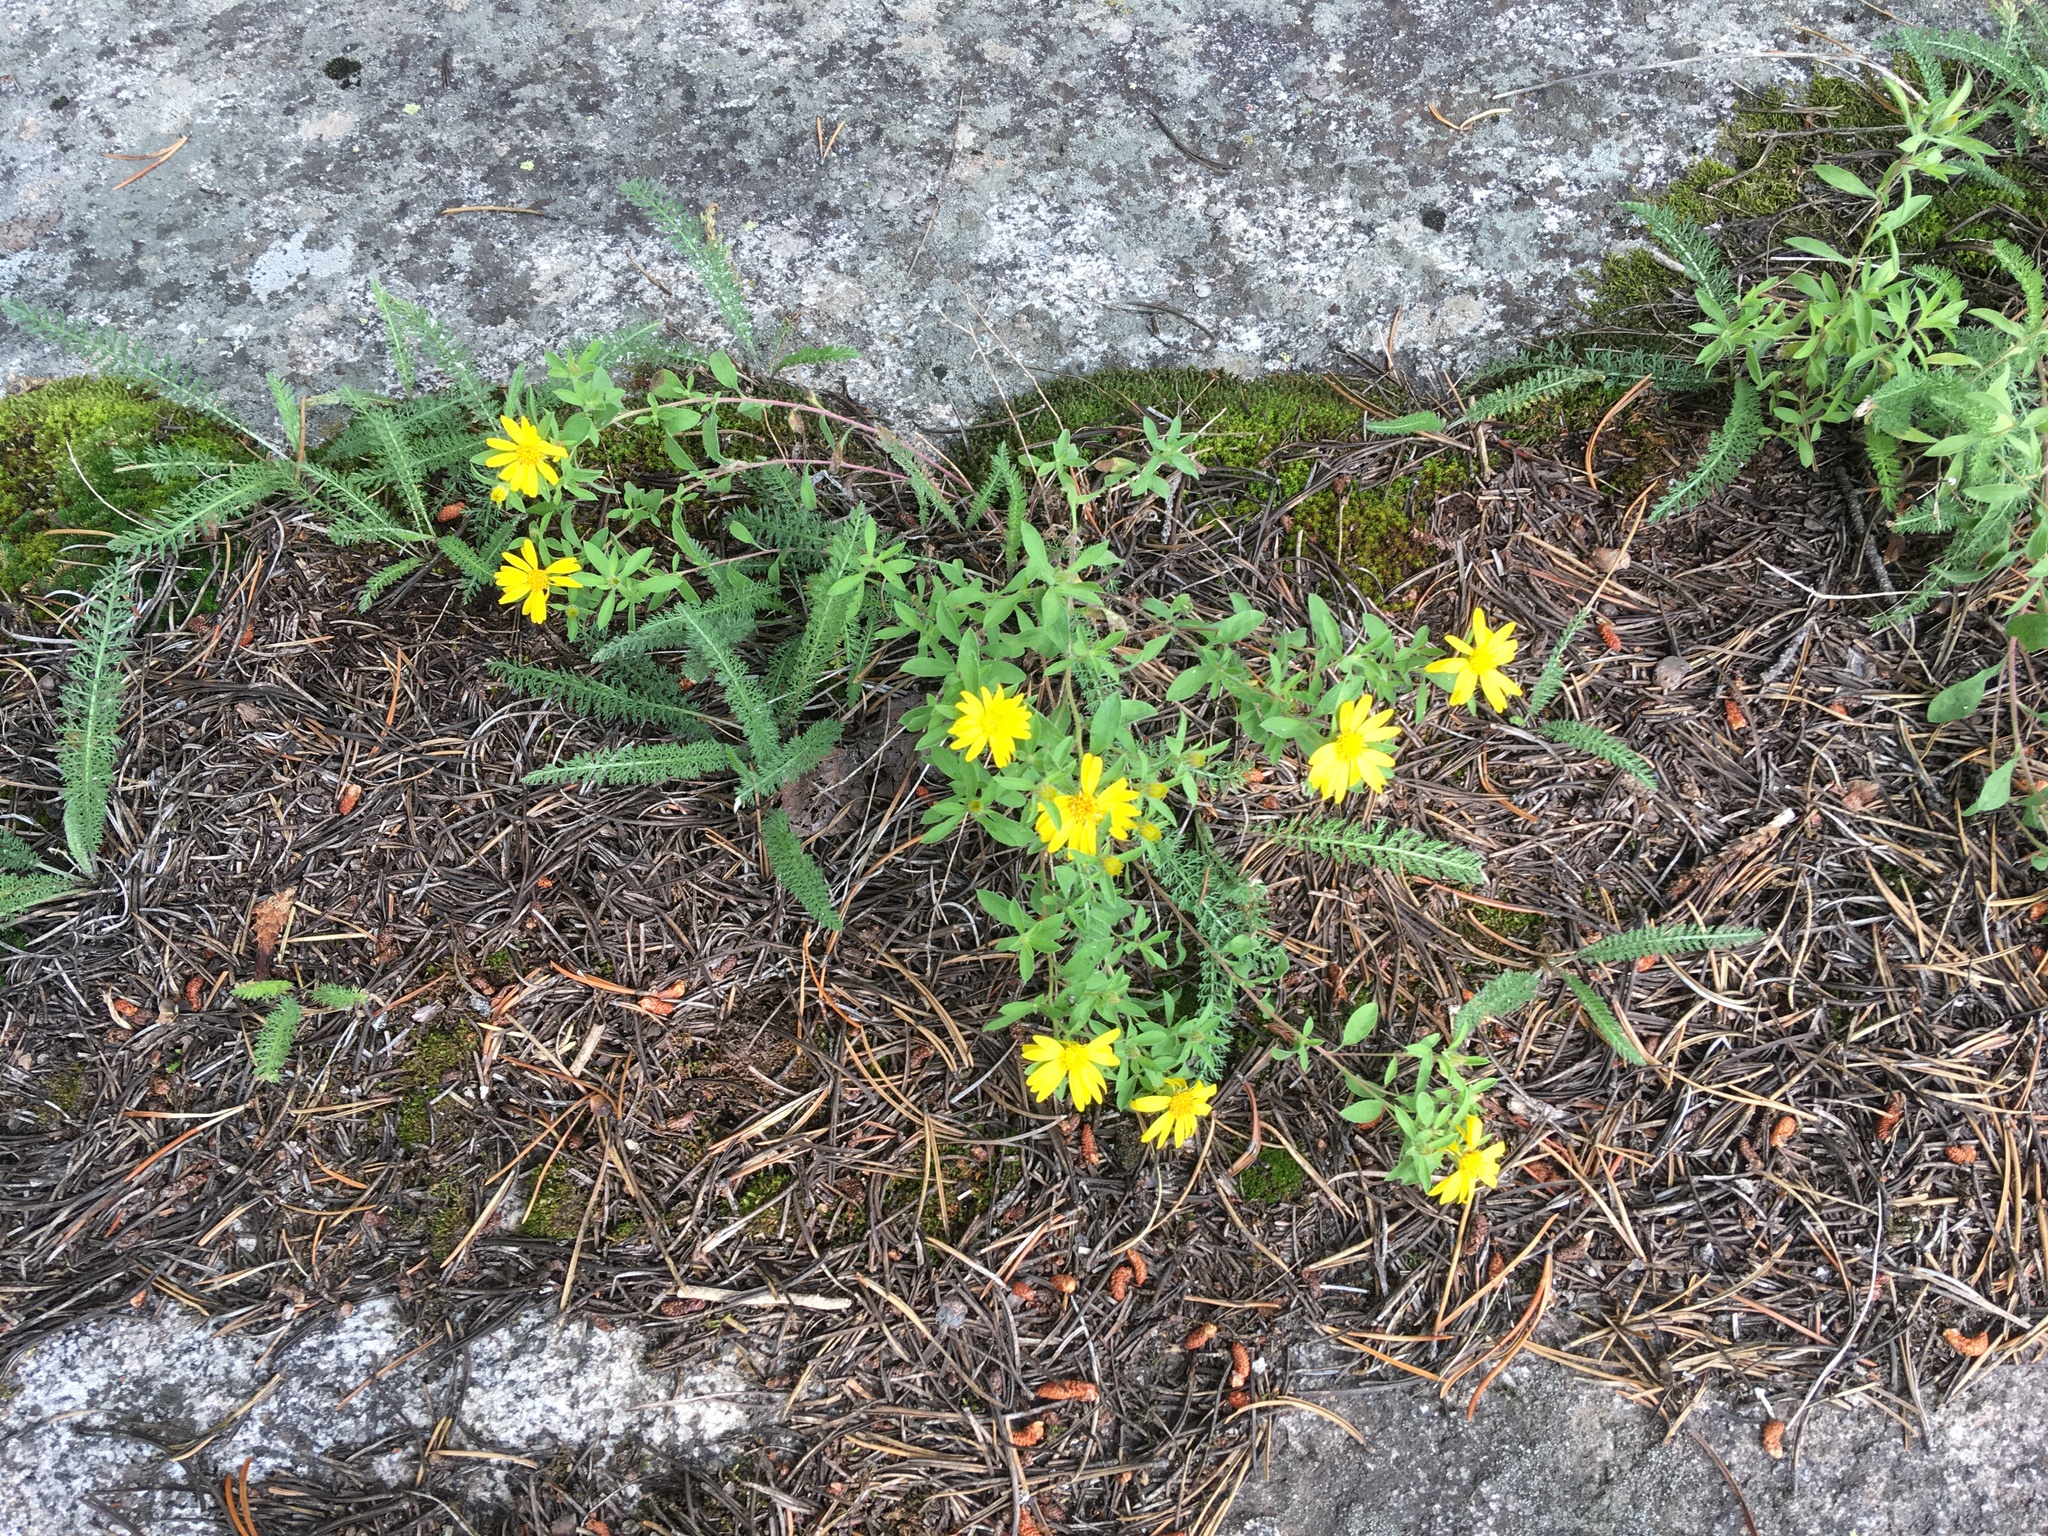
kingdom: Plantae
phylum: Tracheophyta
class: Magnoliopsida
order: Asterales
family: Asteraceae
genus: Heterotheca
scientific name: Heterotheca villosa
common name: Hairy false goldenaster
